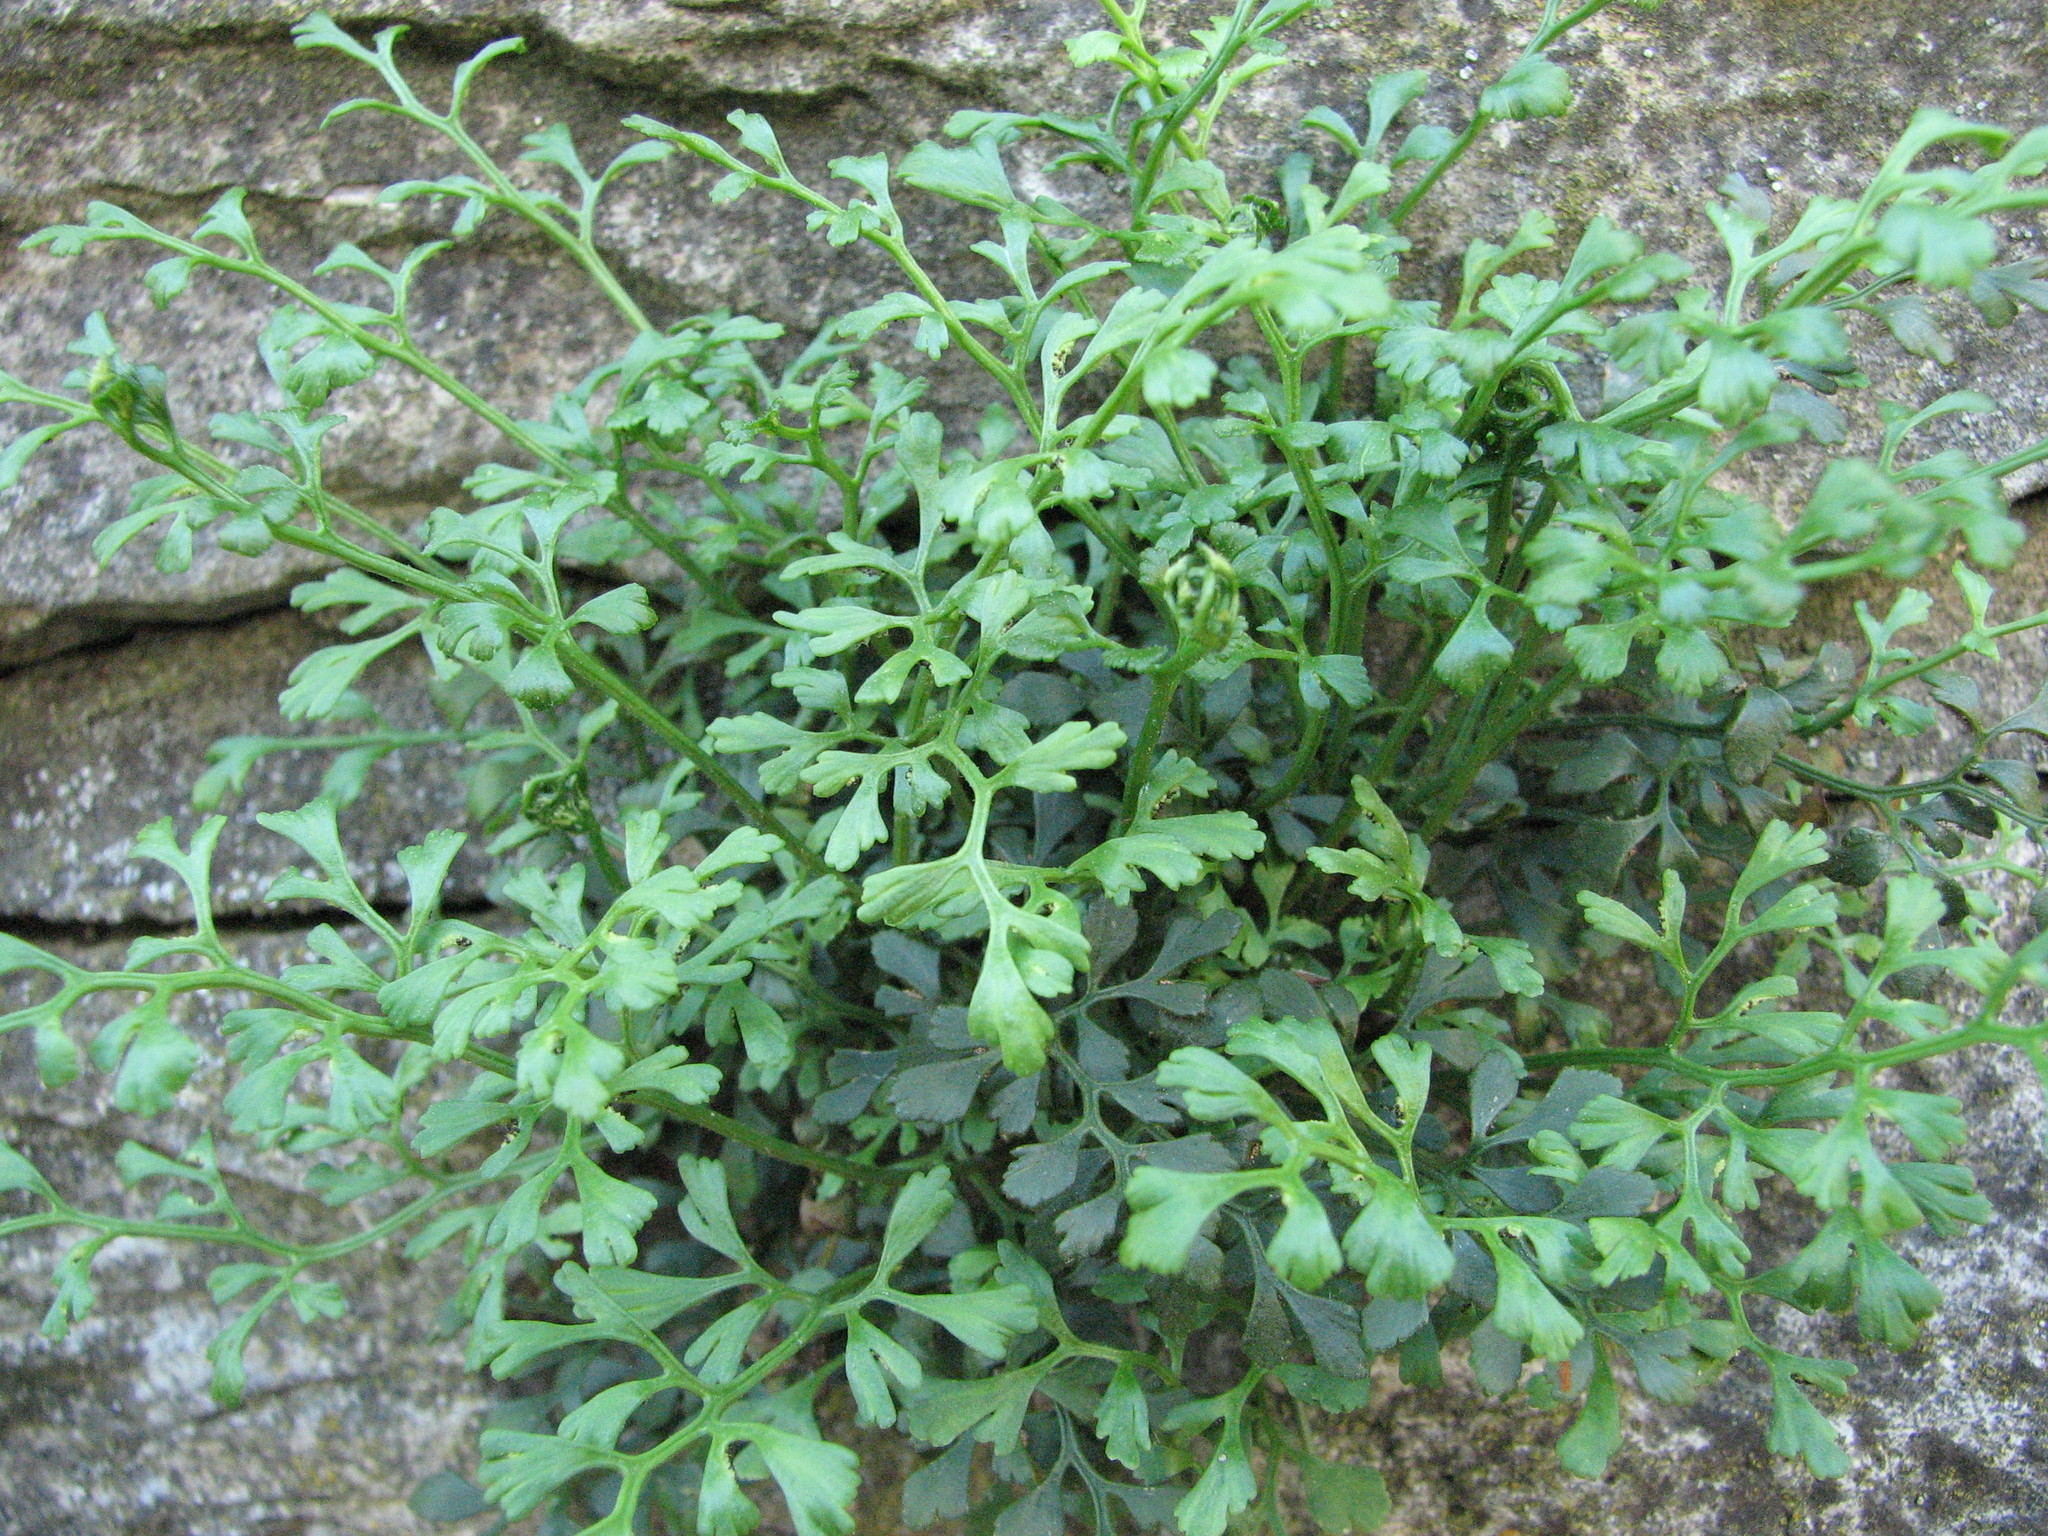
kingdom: Plantae
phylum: Tracheophyta
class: Polypodiopsida
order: Polypodiales
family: Aspleniaceae
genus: Asplenium
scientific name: Asplenium ruta-muraria
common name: Wall-rue
